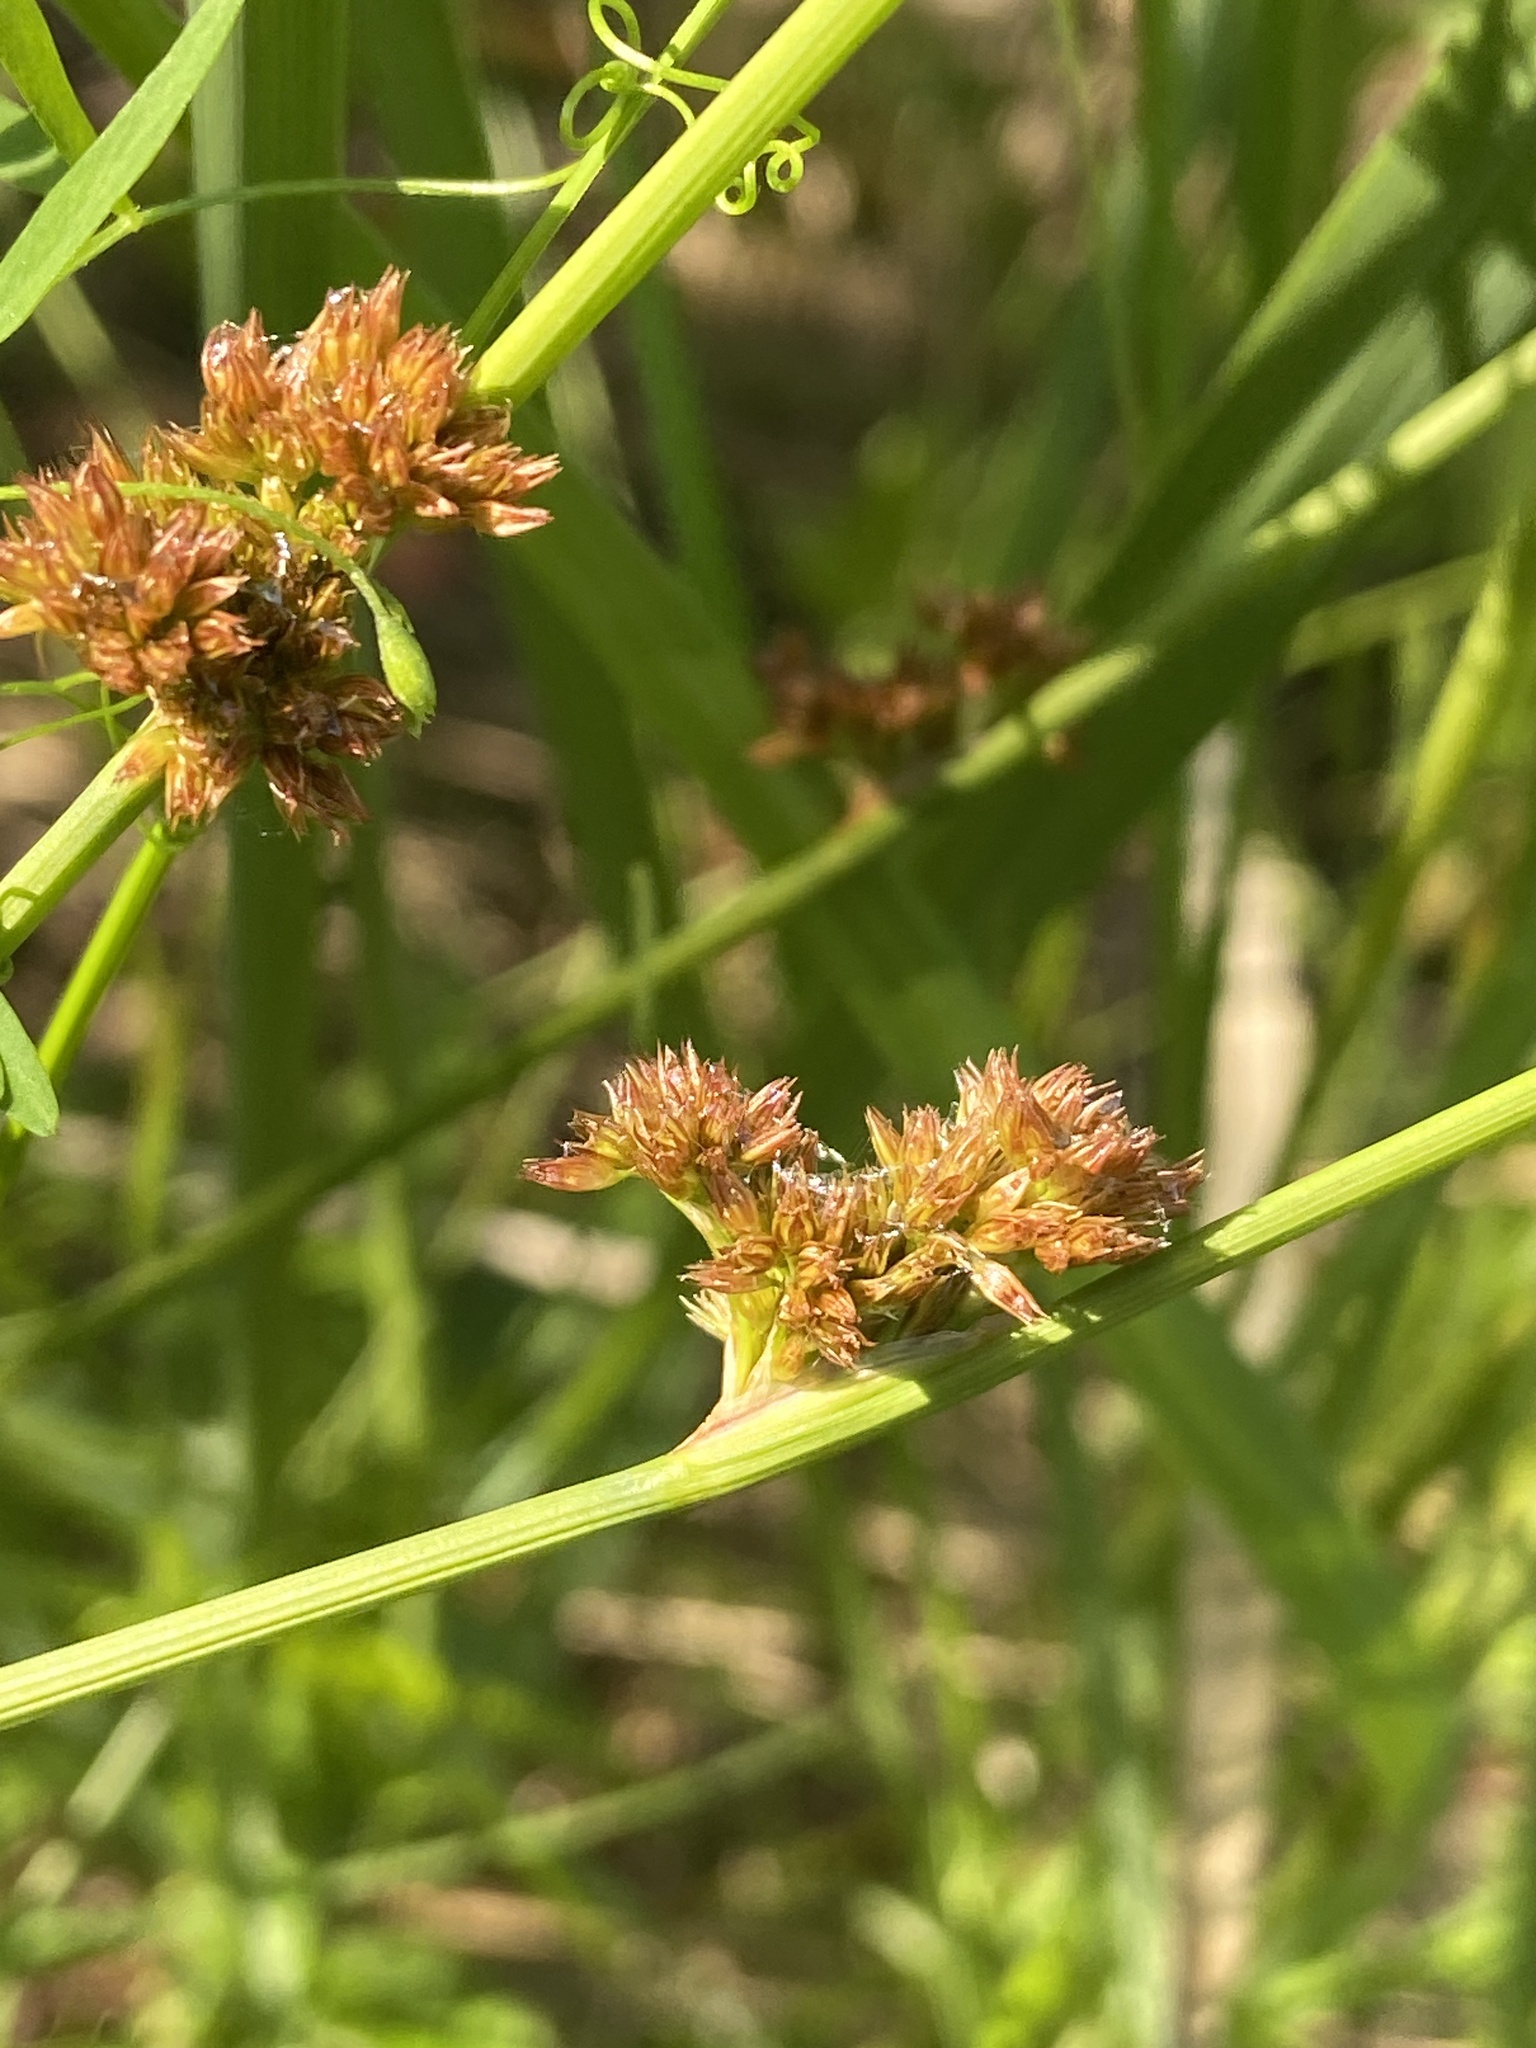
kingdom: Plantae
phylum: Tracheophyta
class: Liliopsida
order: Poales
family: Juncaceae
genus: Juncus
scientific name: Juncus effusus
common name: Soft rush
